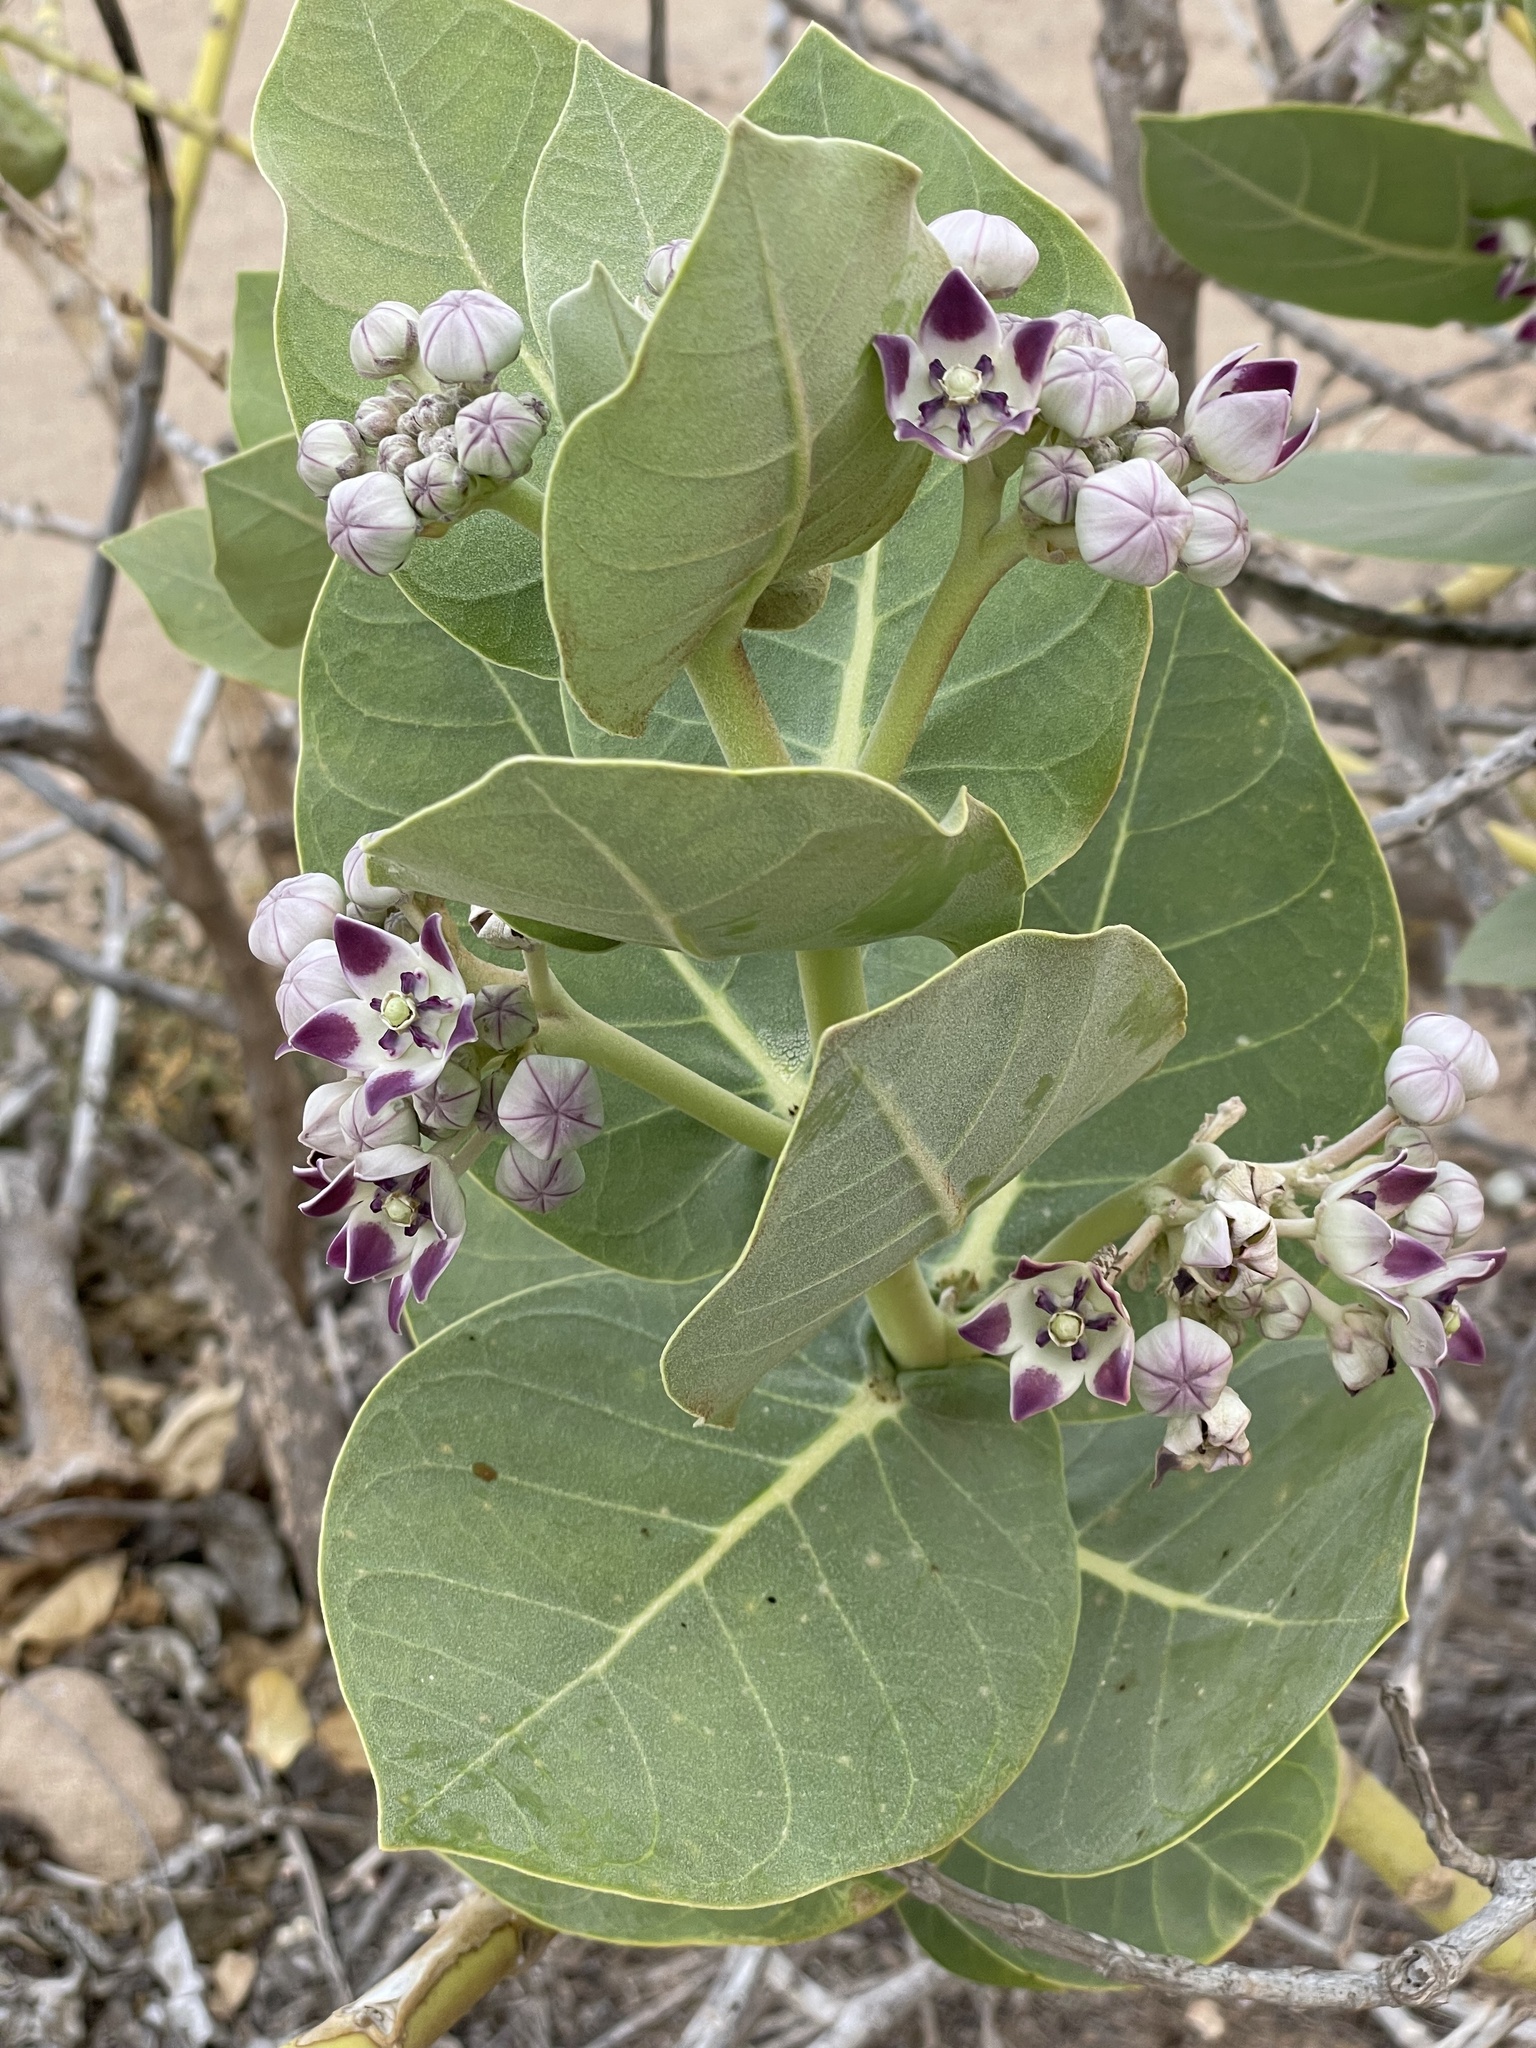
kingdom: Plantae
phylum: Tracheophyta
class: Magnoliopsida
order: Gentianales
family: Apocynaceae
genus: Calotropis
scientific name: Calotropis procera
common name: Roostertree
